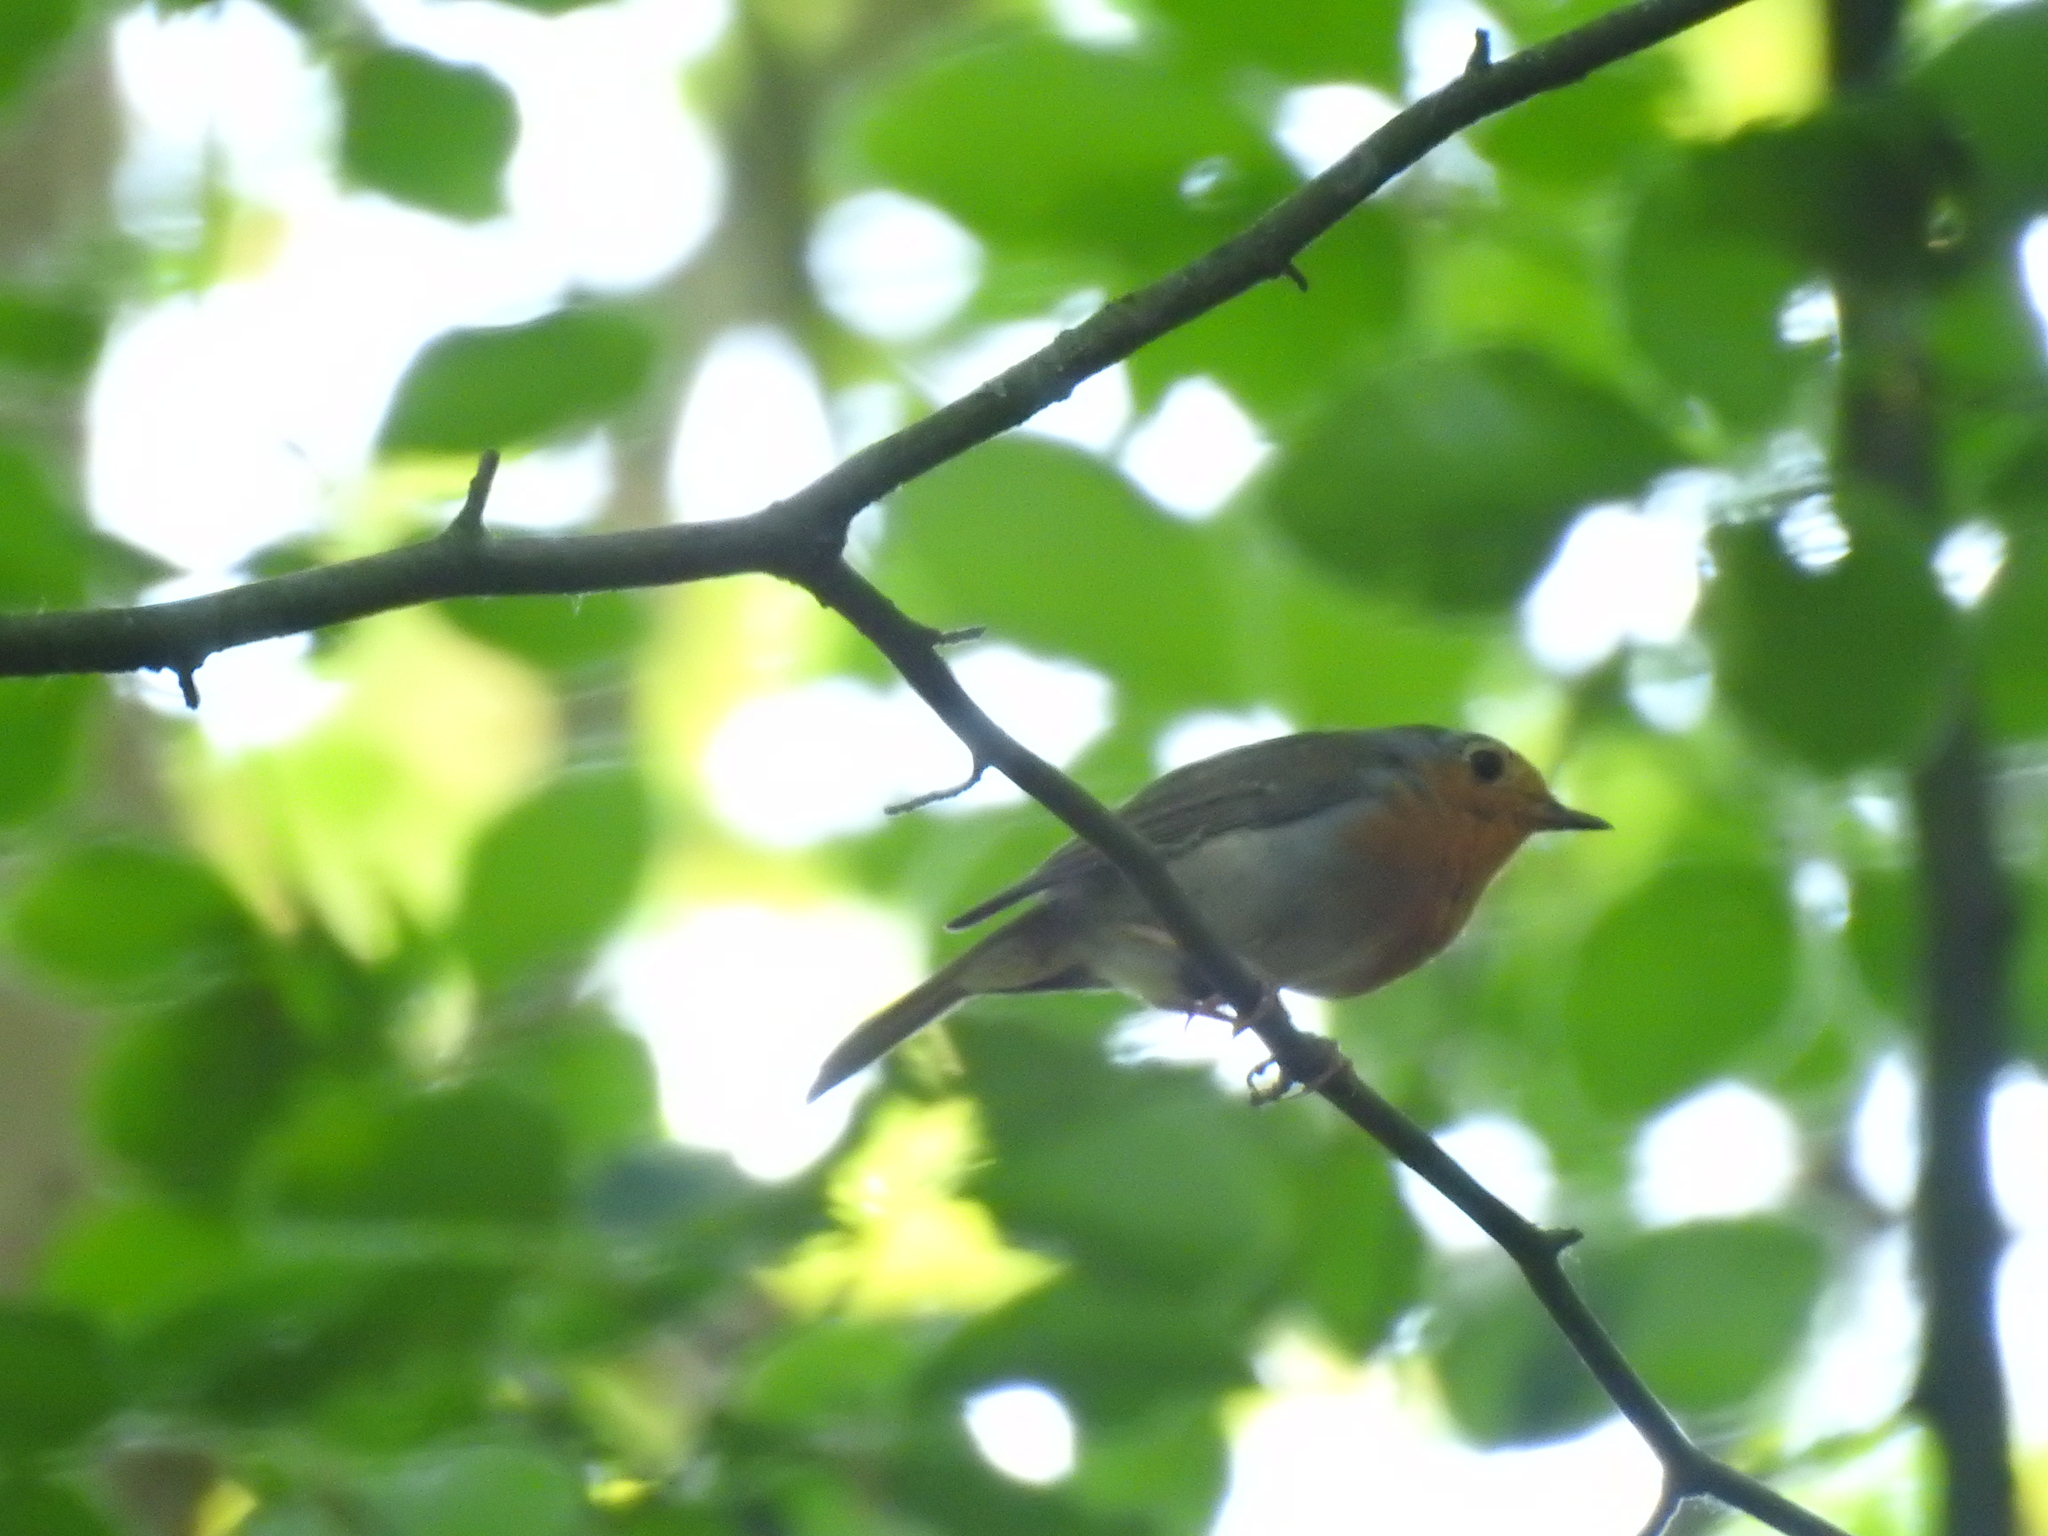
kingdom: Animalia
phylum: Chordata
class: Aves
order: Passeriformes
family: Muscicapidae
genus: Erithacus
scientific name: Erithacus rubecula
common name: European robin
